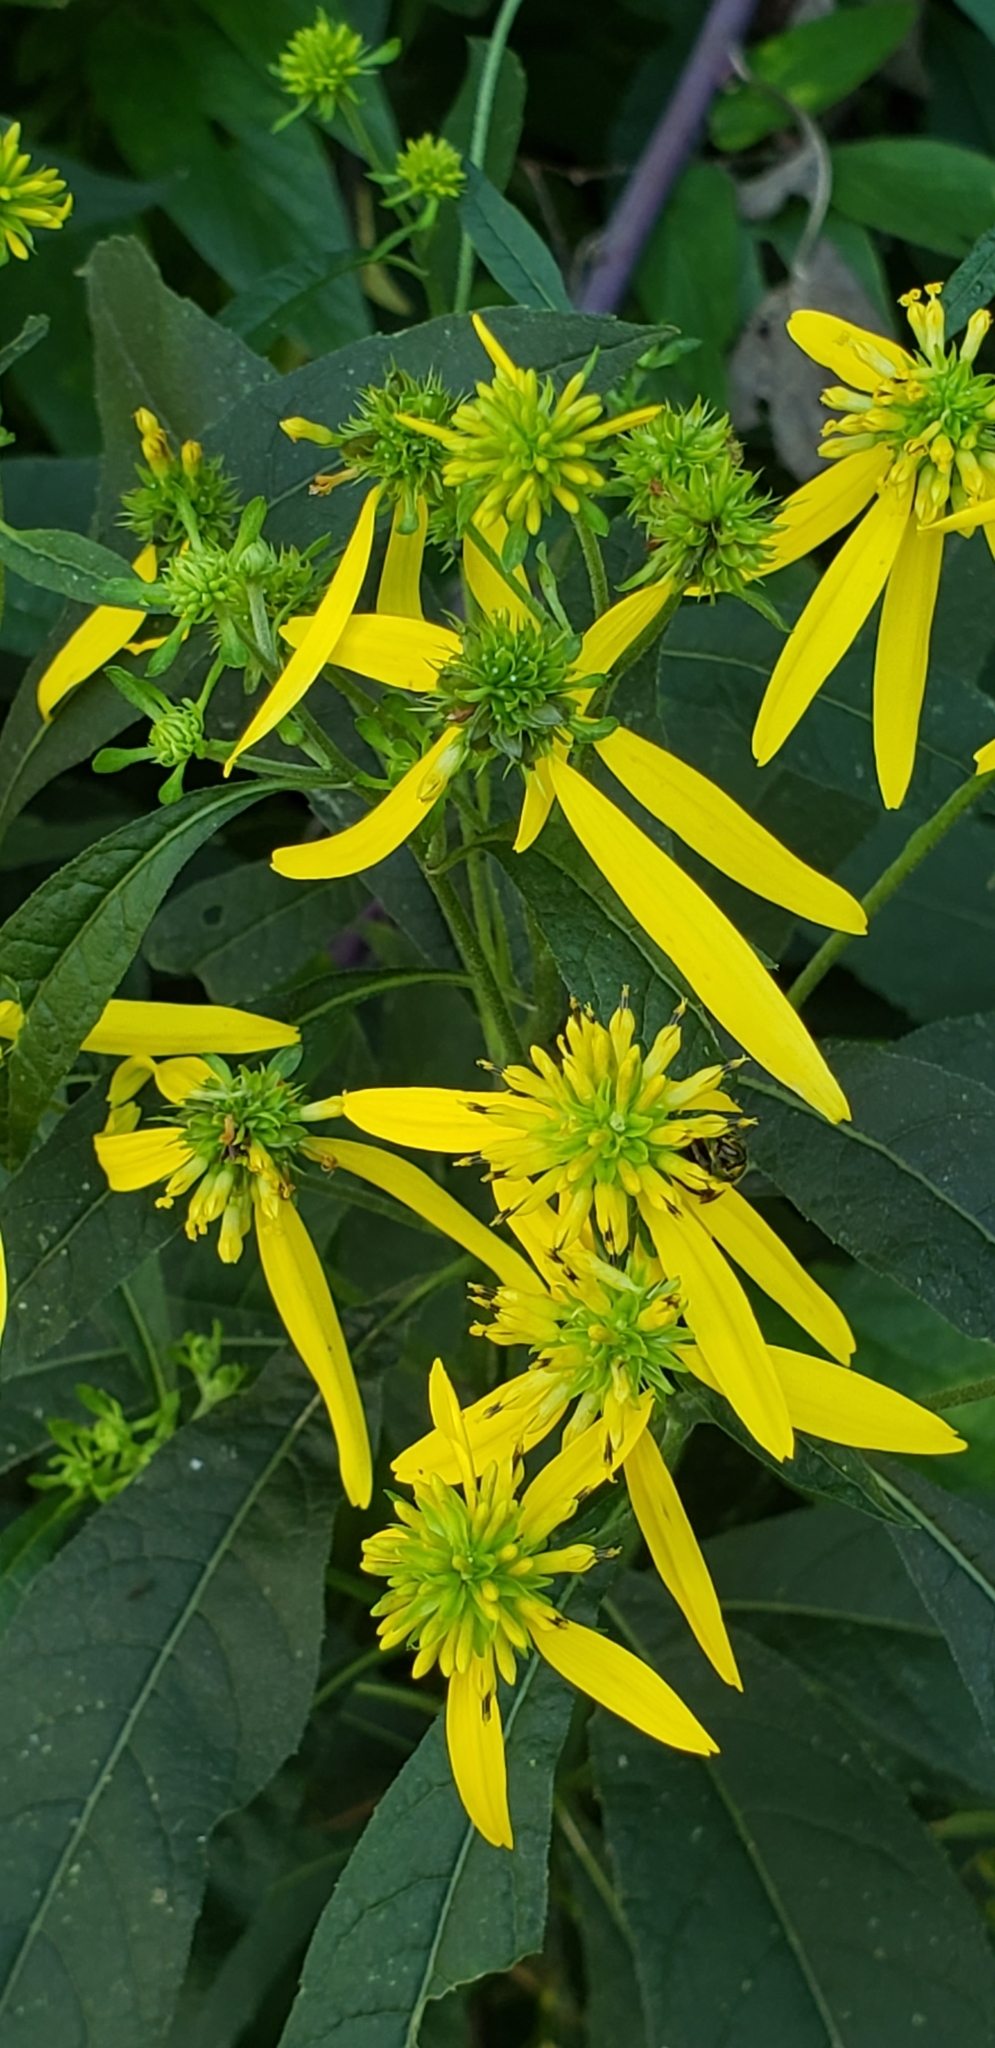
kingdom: Plantae
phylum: Tracheophyta
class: Magnoliopsida
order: Asterales
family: Asteraceae
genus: Verbesina
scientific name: Verbesina alternifolia
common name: Wingstem
